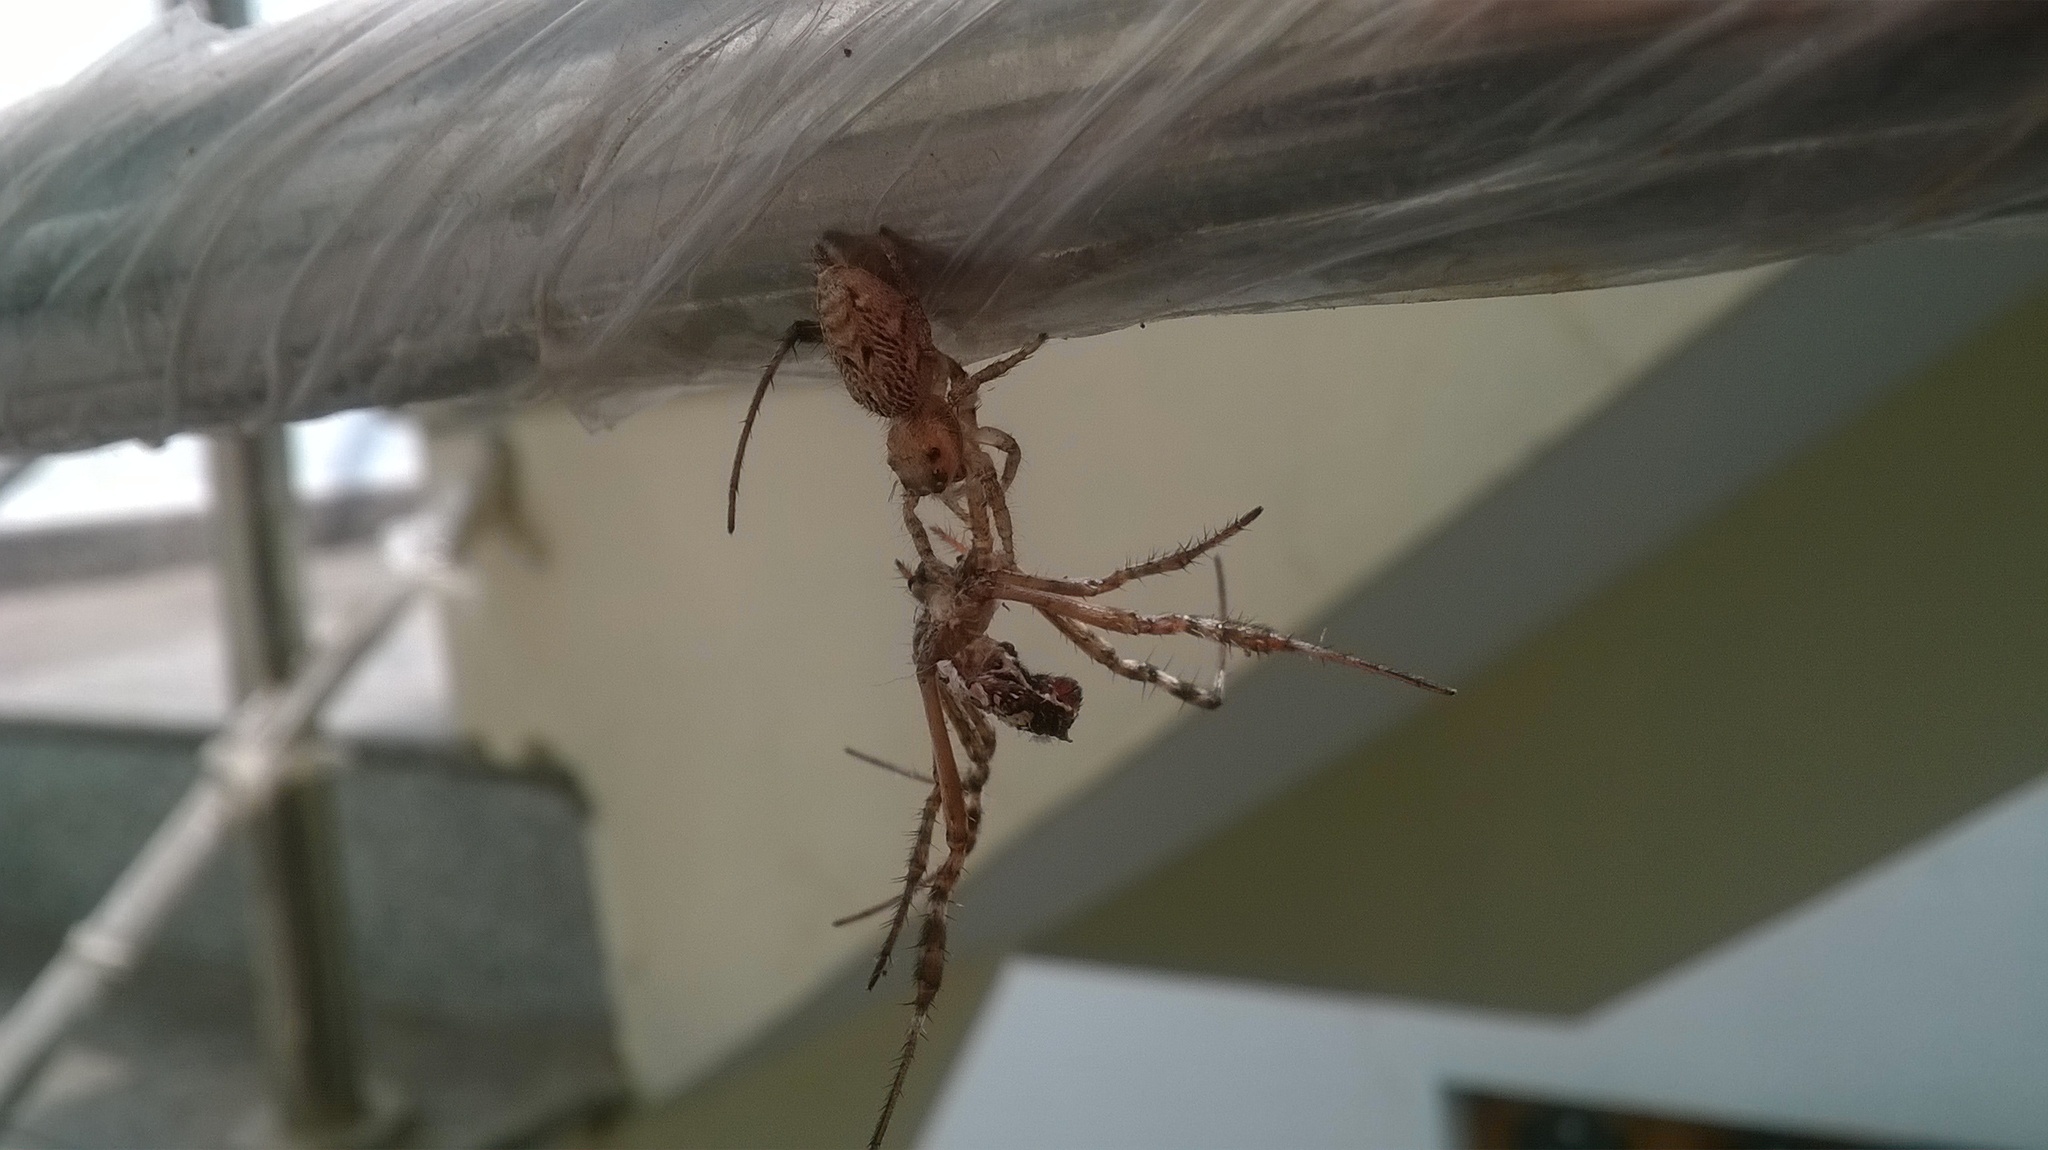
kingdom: Animalia
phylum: Arthropoda
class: Arachnida
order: Araneae
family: Salticidae
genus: Hyllus
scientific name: Hyllus semicupreus
